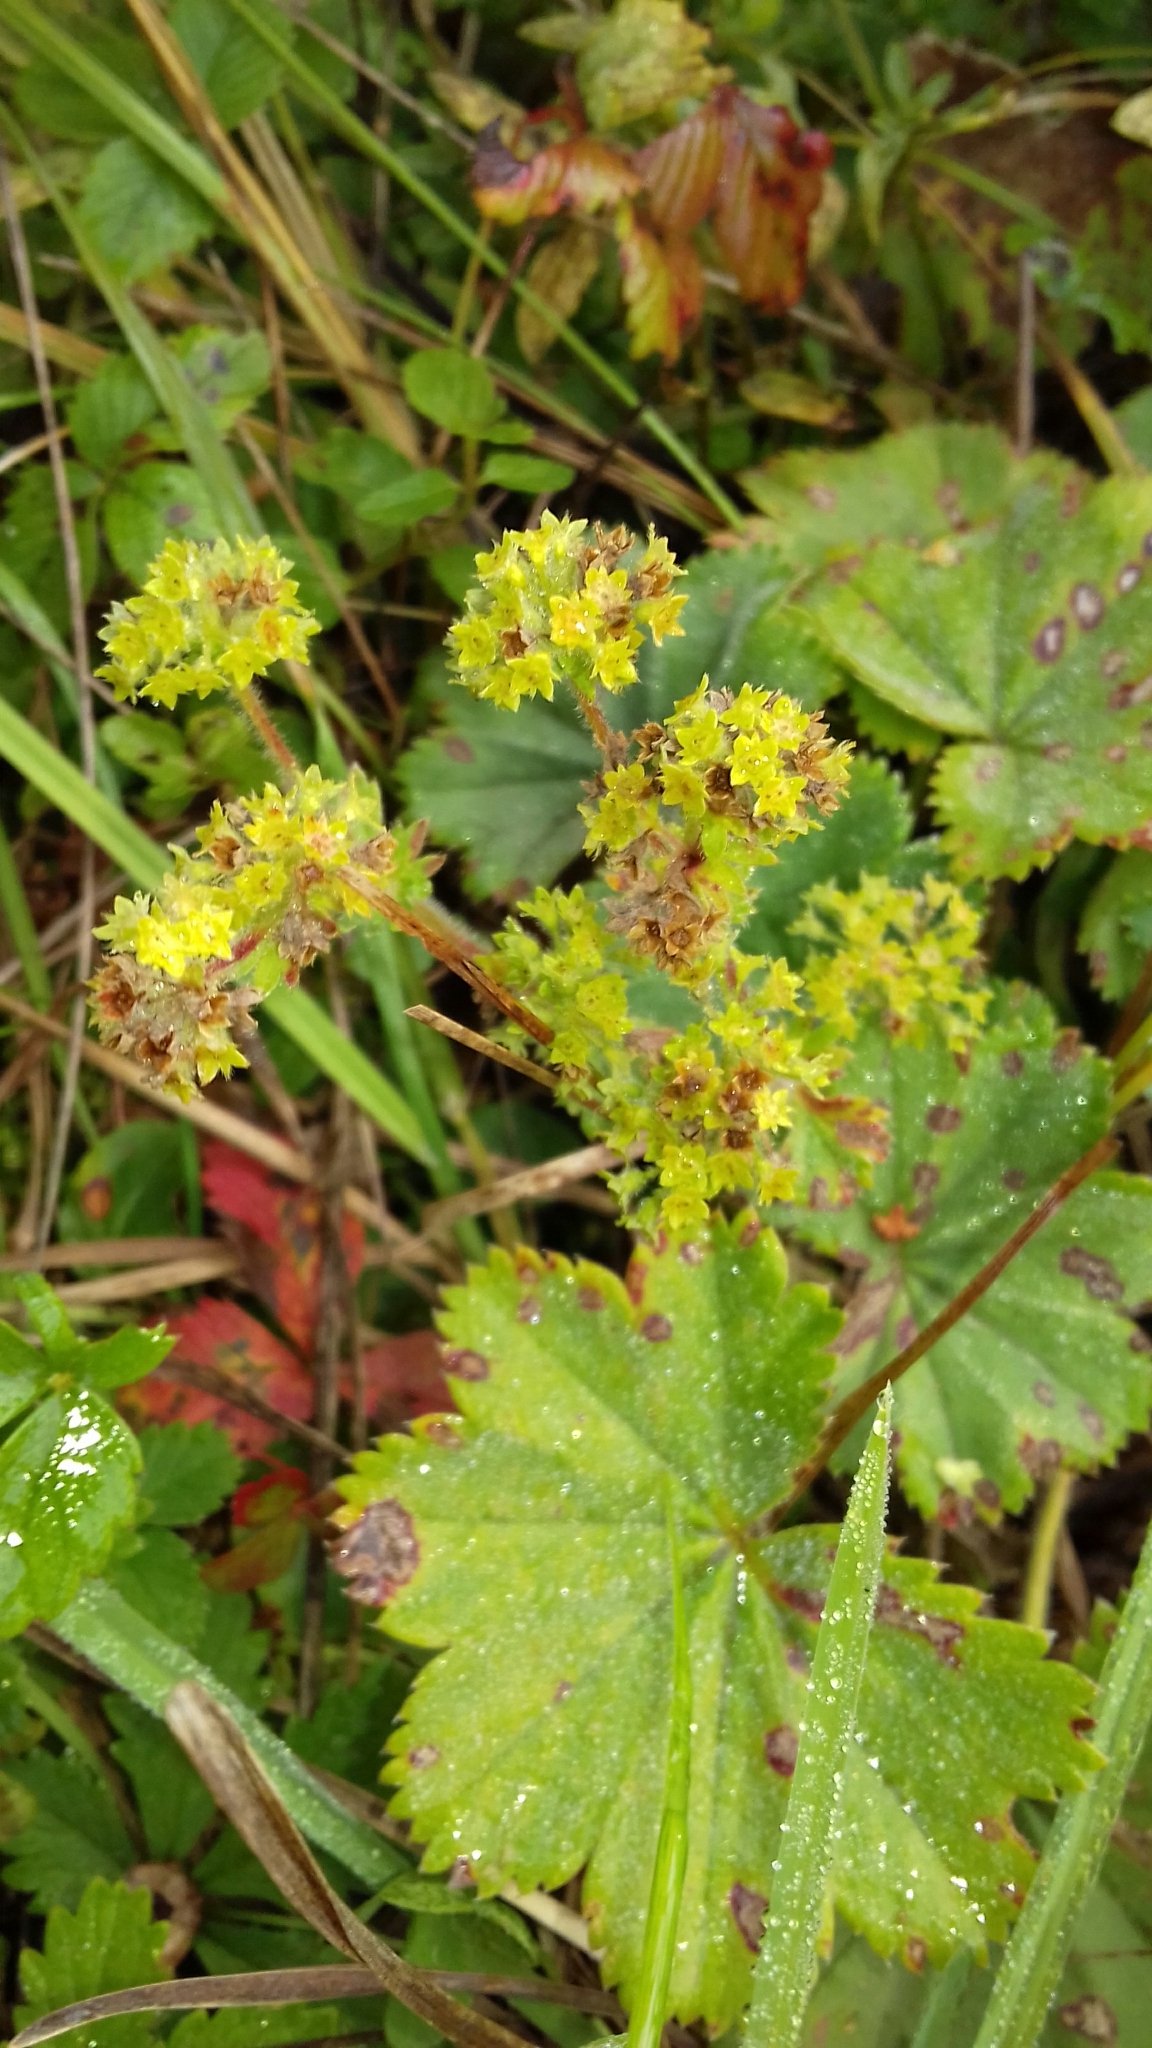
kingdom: Plantae
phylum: Tracheophyta
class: Magnoliopsida
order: Rosales
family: Rosaceae
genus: Alchemilla
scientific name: Alchemilla hirsuticaulis
